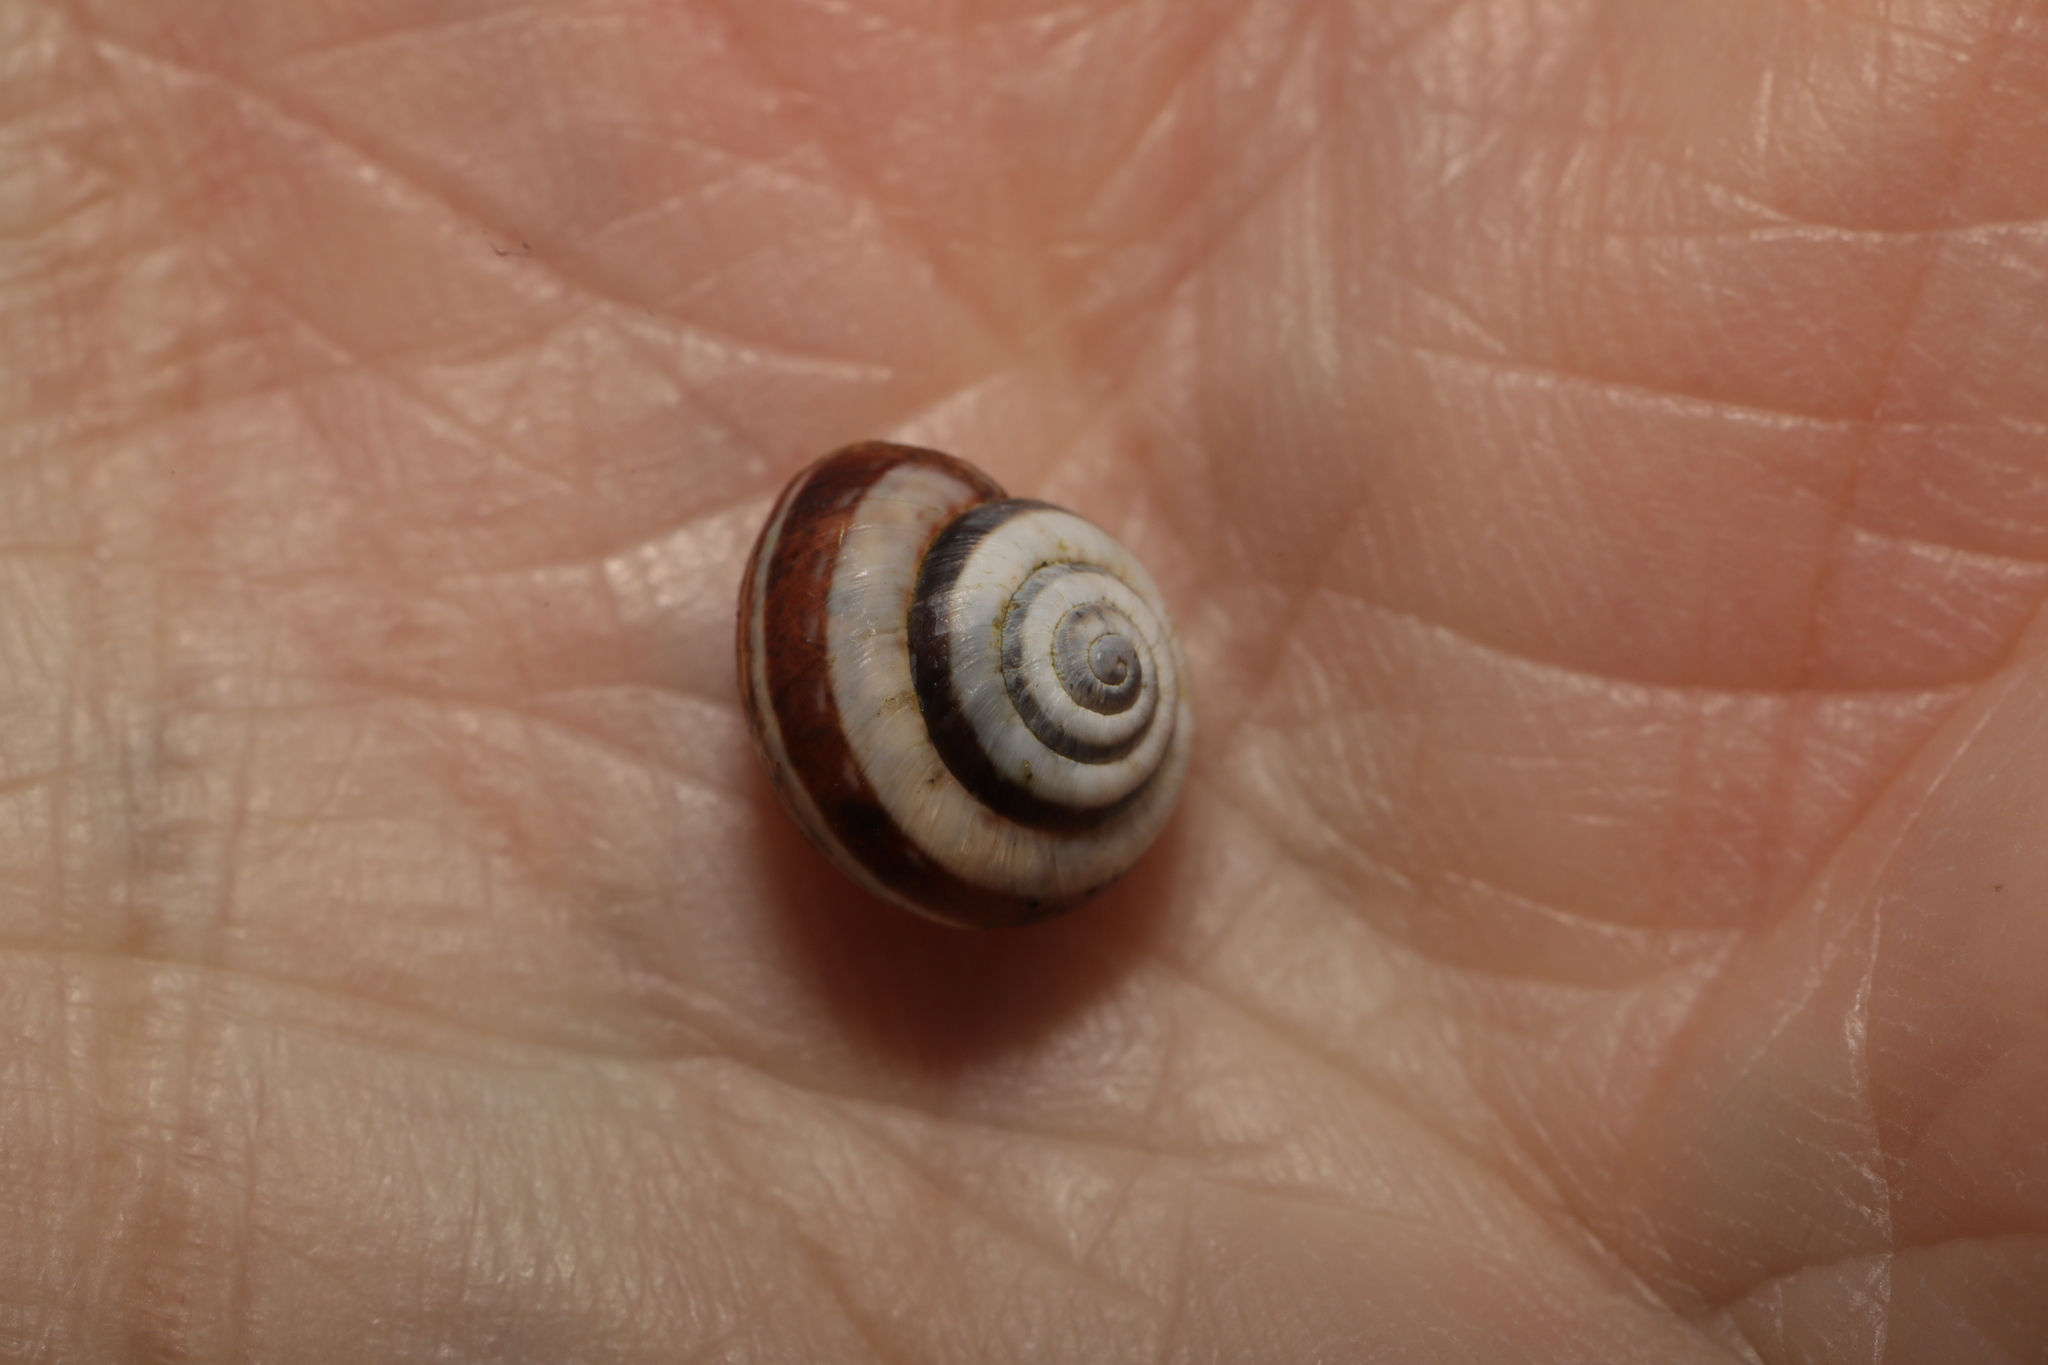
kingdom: Animalia
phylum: Mollusca
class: Gastropoda
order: Stylommatophora
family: Geomitridae
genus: Cernuella
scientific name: Cernuella virgata
